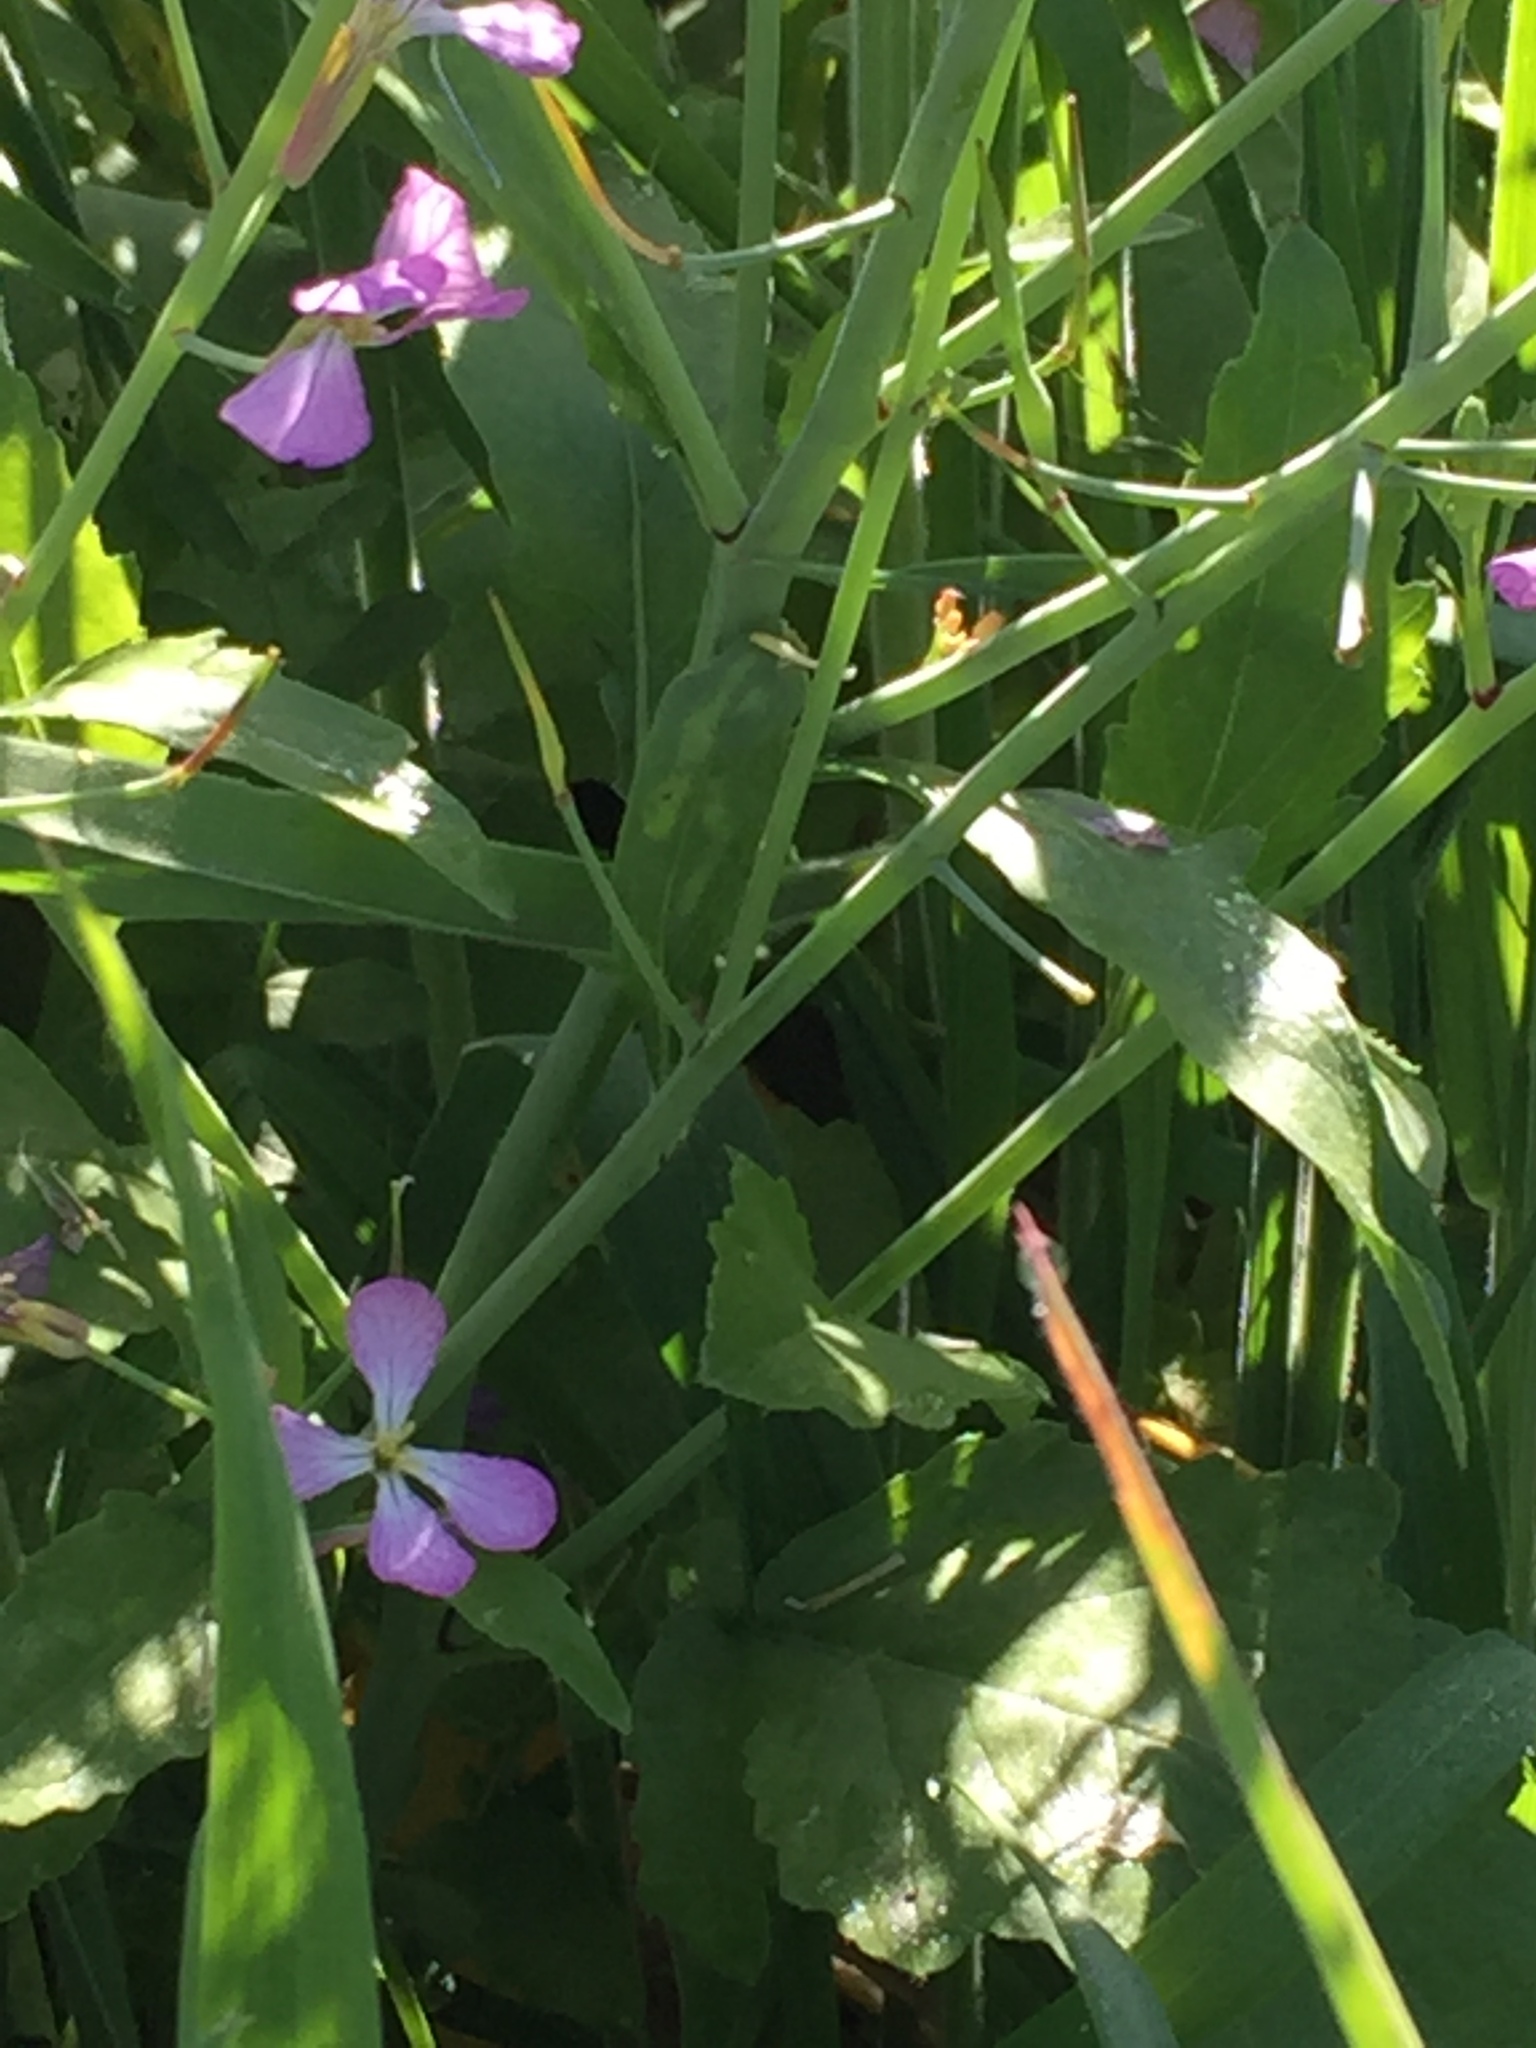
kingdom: Plantae
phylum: Tracheophyta
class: Magnoliopsida
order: Brassicales
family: Brassicaceae
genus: Raphanus
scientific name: Raphanus sativus
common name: Cultivated radish
